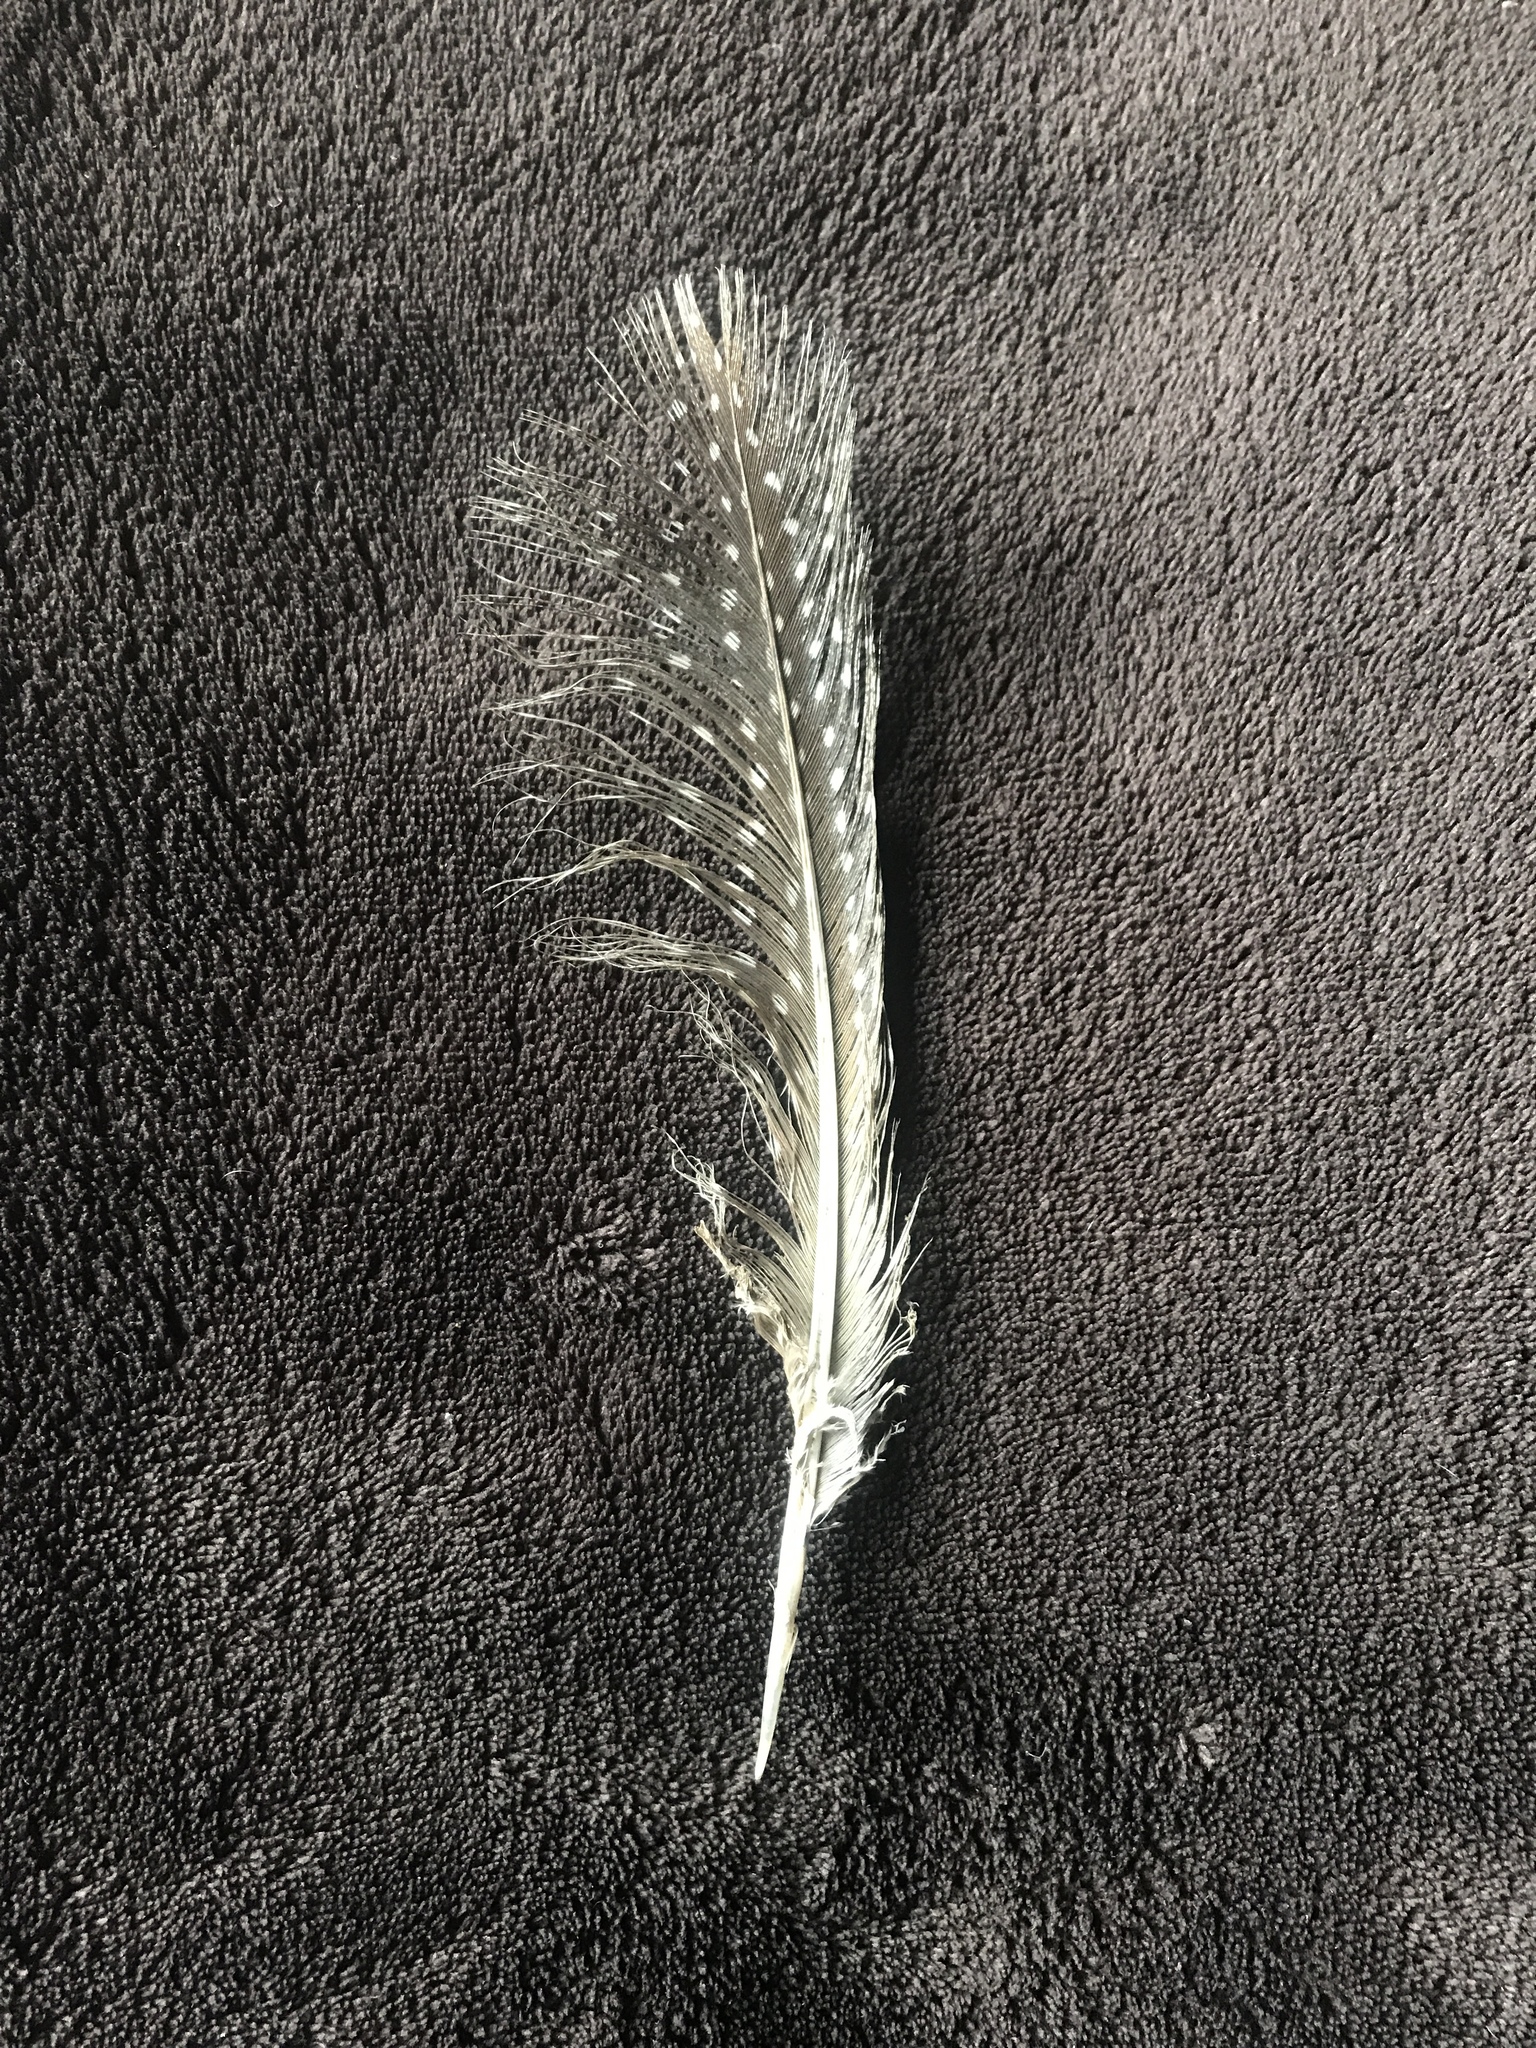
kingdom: Animalia
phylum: Chordata
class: Aves
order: Galliformes
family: Numididae
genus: Numida
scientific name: Numida meleagris
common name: Helmeted guineafowl
